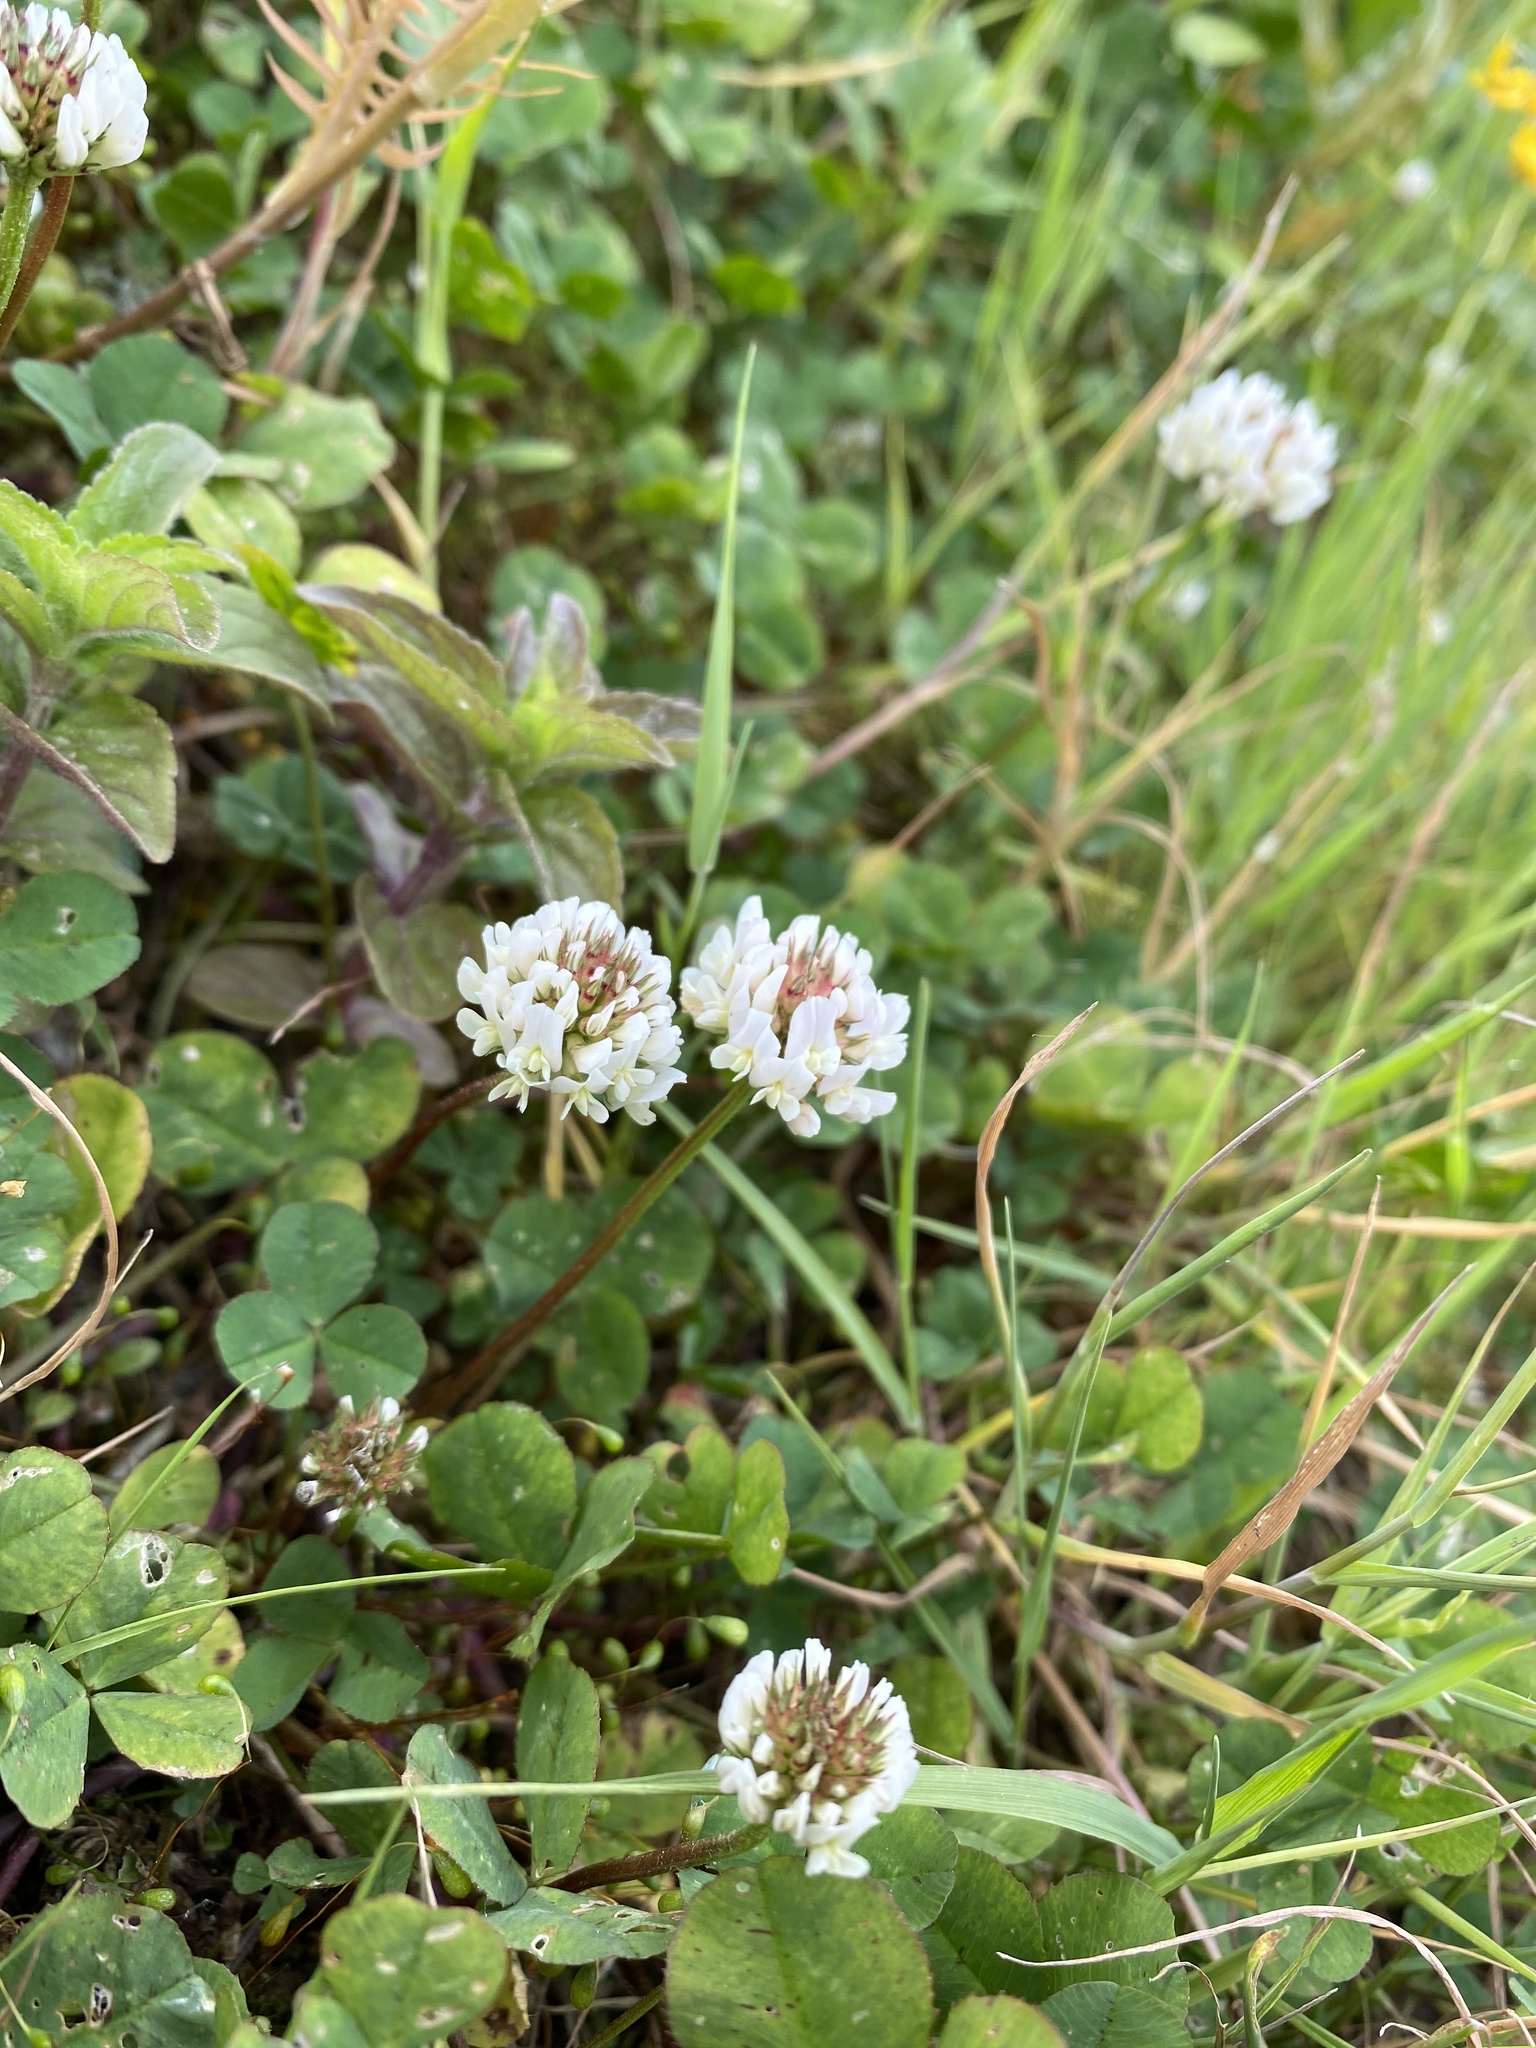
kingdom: Plantae
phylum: Tracheophyta
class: Magnoliopsida
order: Fabales
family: Fabaceae
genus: Trifolium
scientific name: Trifolium repens
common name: White clover
